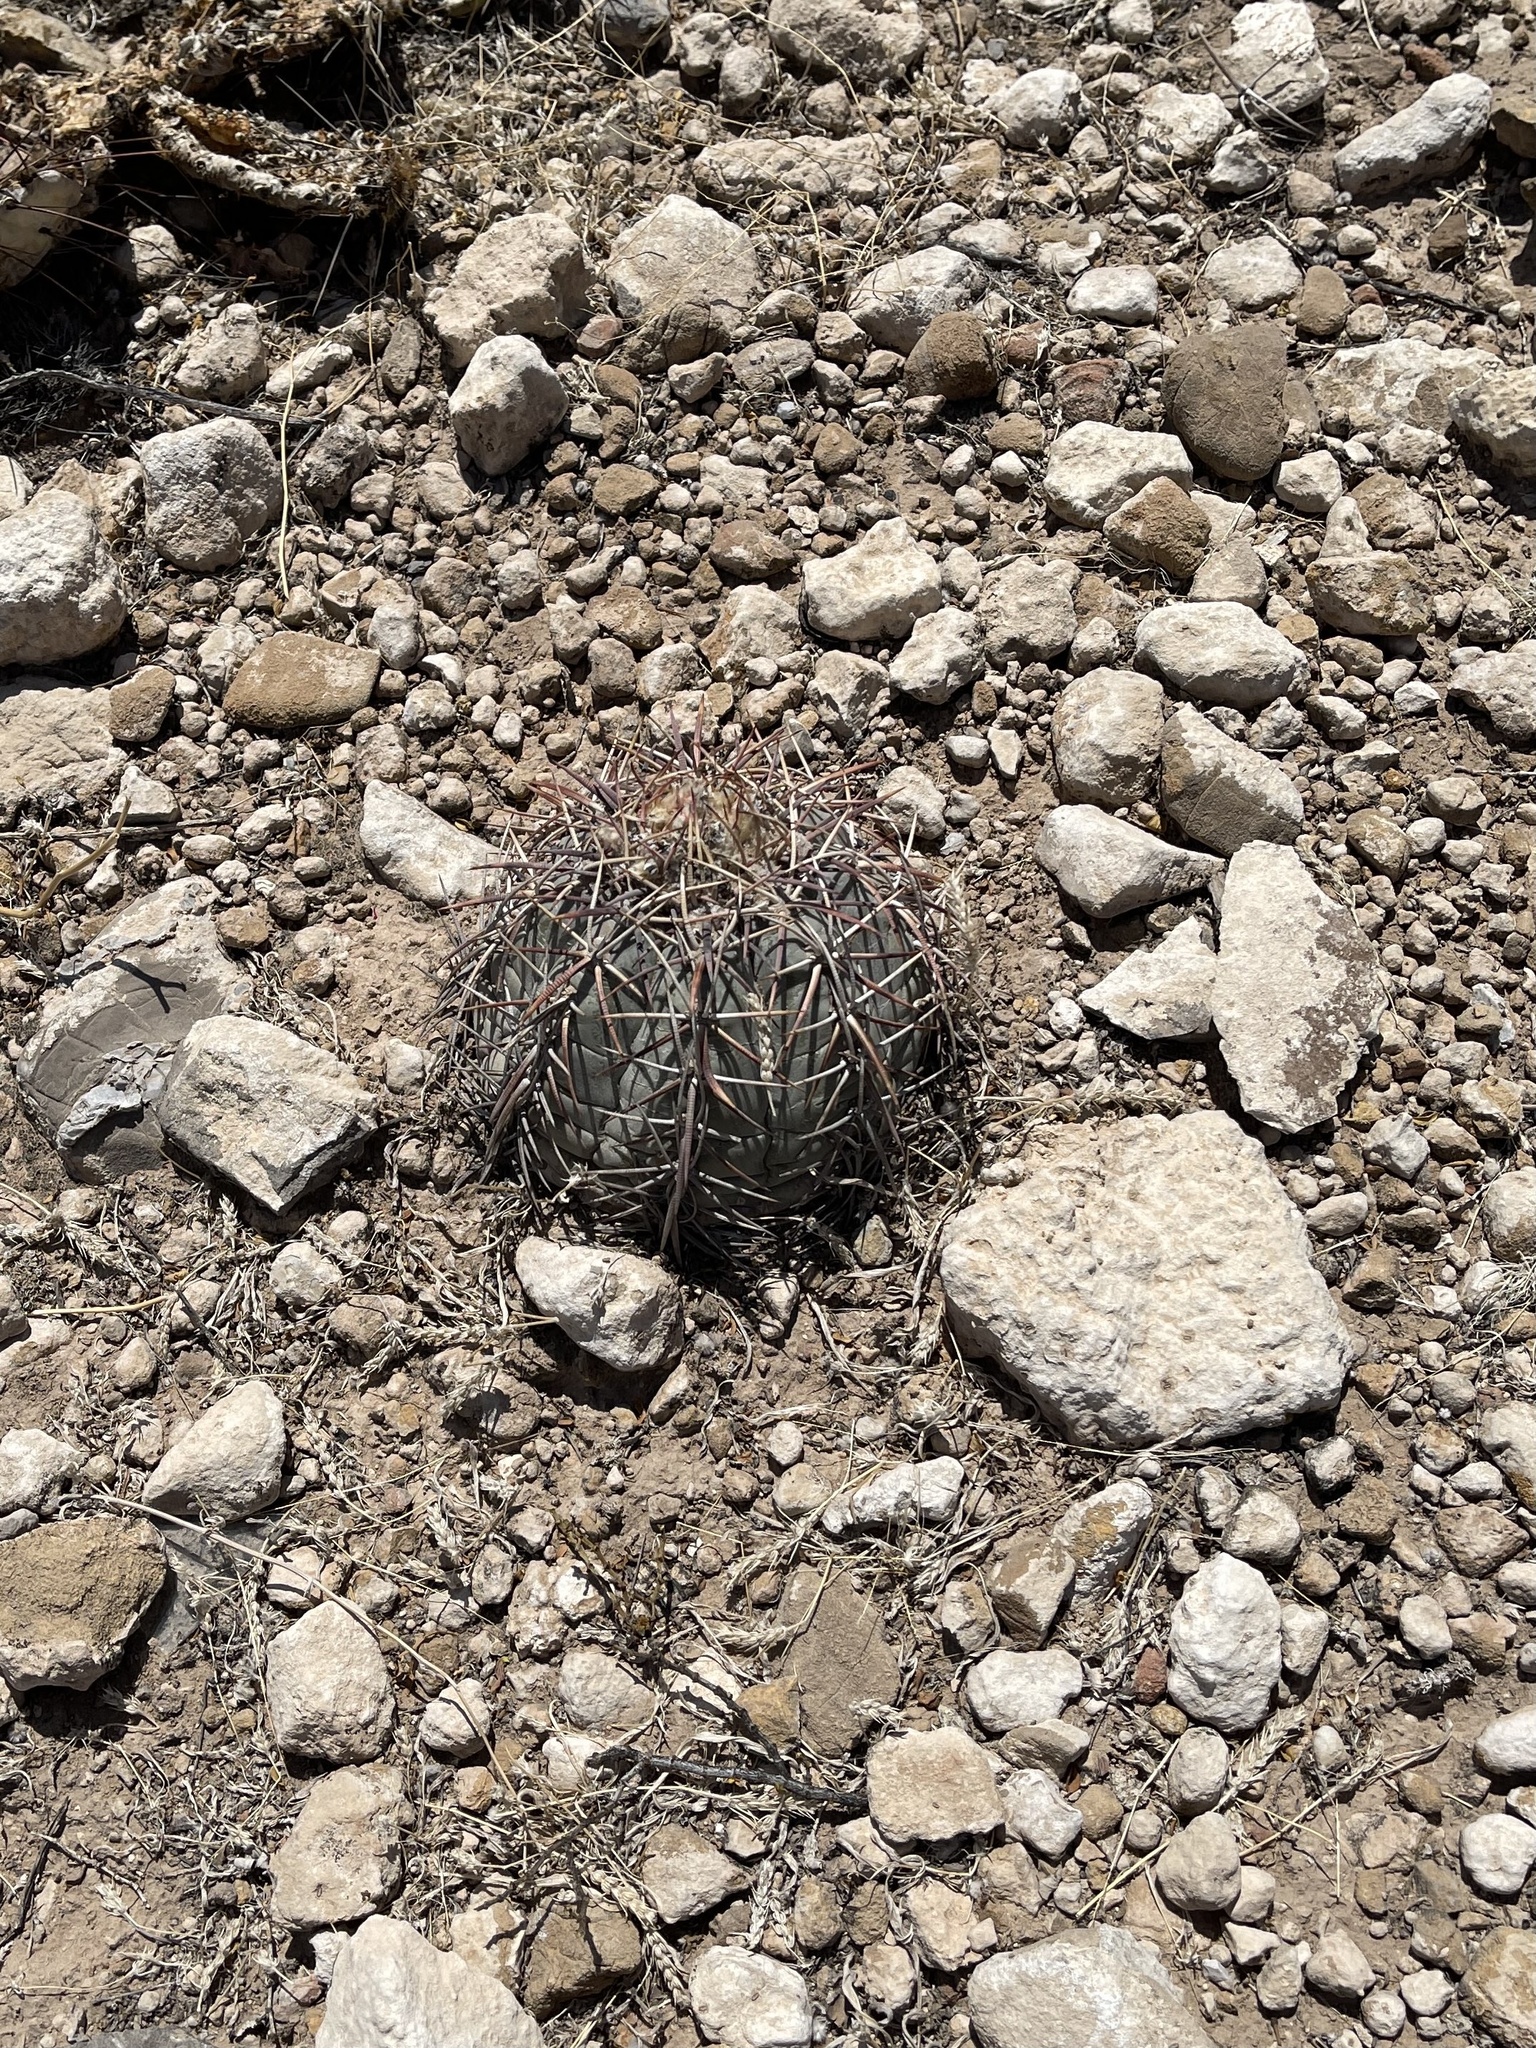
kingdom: Plantae
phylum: Tracheophyta
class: Magnoliopsida
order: Caryophyllales
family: Cactaceae
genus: Echinocactus
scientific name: Echinocactus horizonthalonius
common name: Devilshead
